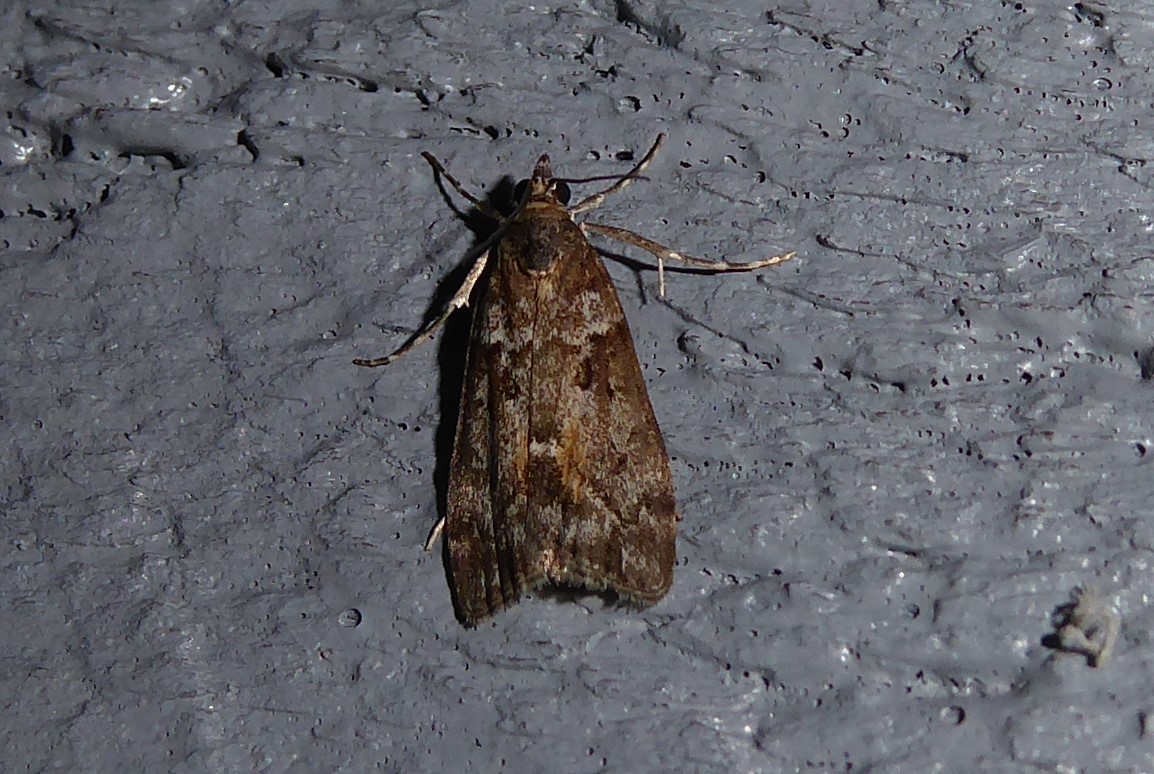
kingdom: Animalia
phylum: Arthropoda
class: Insecta
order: Lepidoptera
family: Crambidae
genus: Eudonia
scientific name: Eudonia submarginalis
